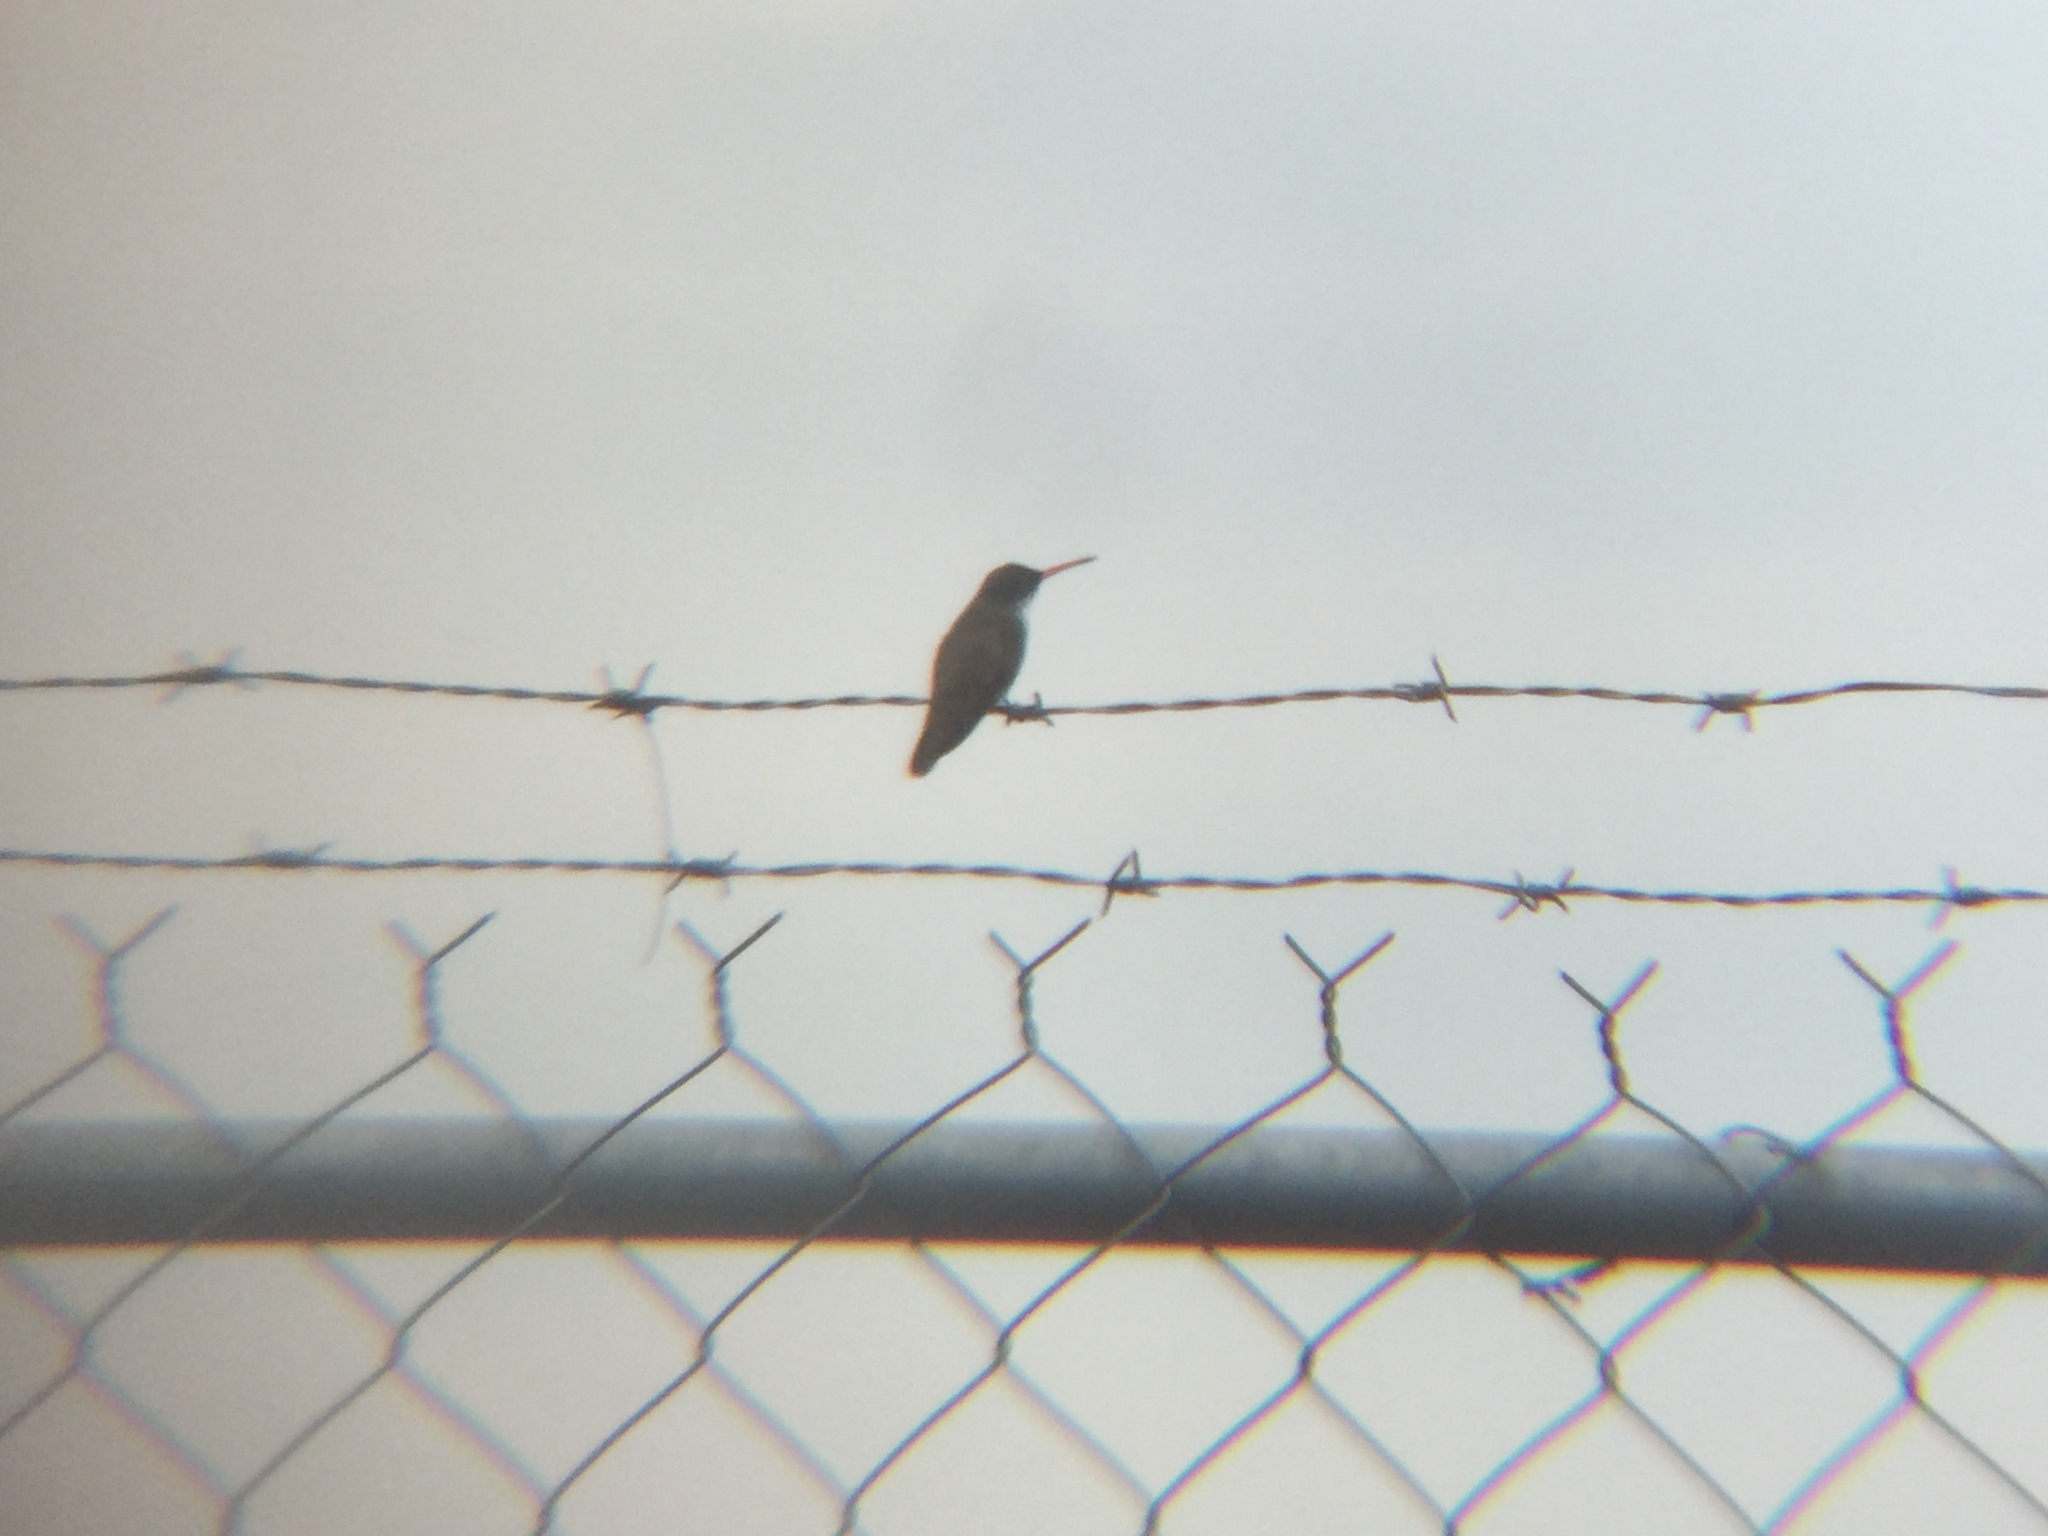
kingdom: Animalia
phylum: Chordata
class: Aves
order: Apodiformes
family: Trochilidae
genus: Leucolia
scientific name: Leucolia violiceps
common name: Violet-crowned hummingbird
